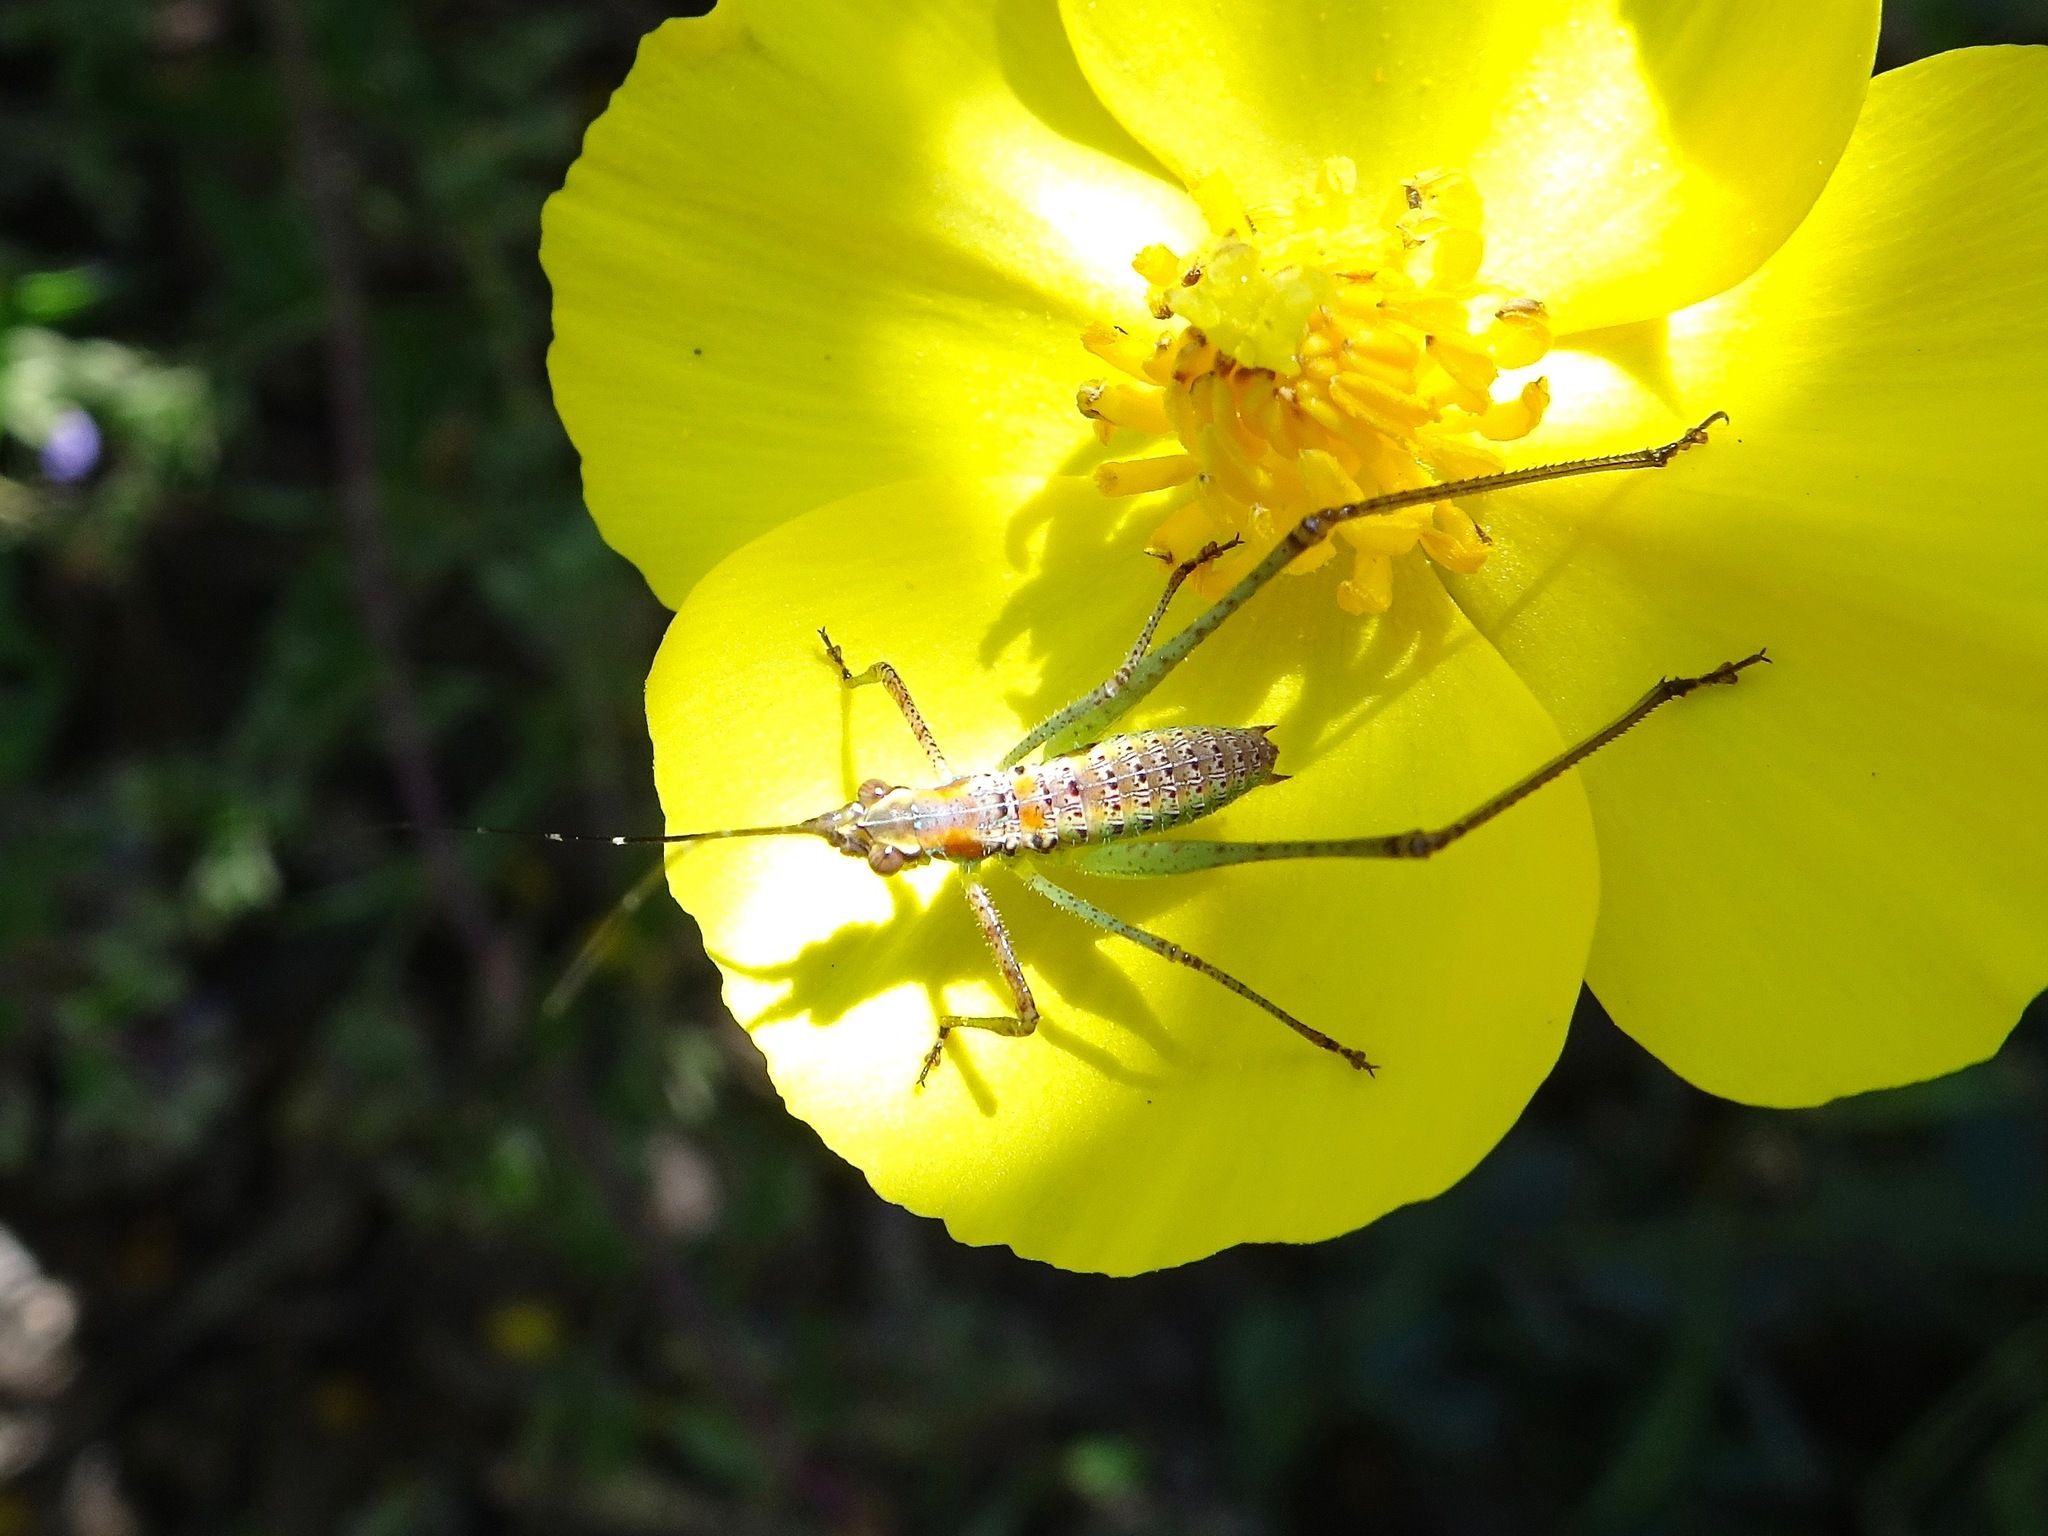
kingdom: Animalia
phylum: Arthropoda
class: Insecta
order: Orthoptera
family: Tettigoniidae
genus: Scudderia
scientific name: Scudderia
